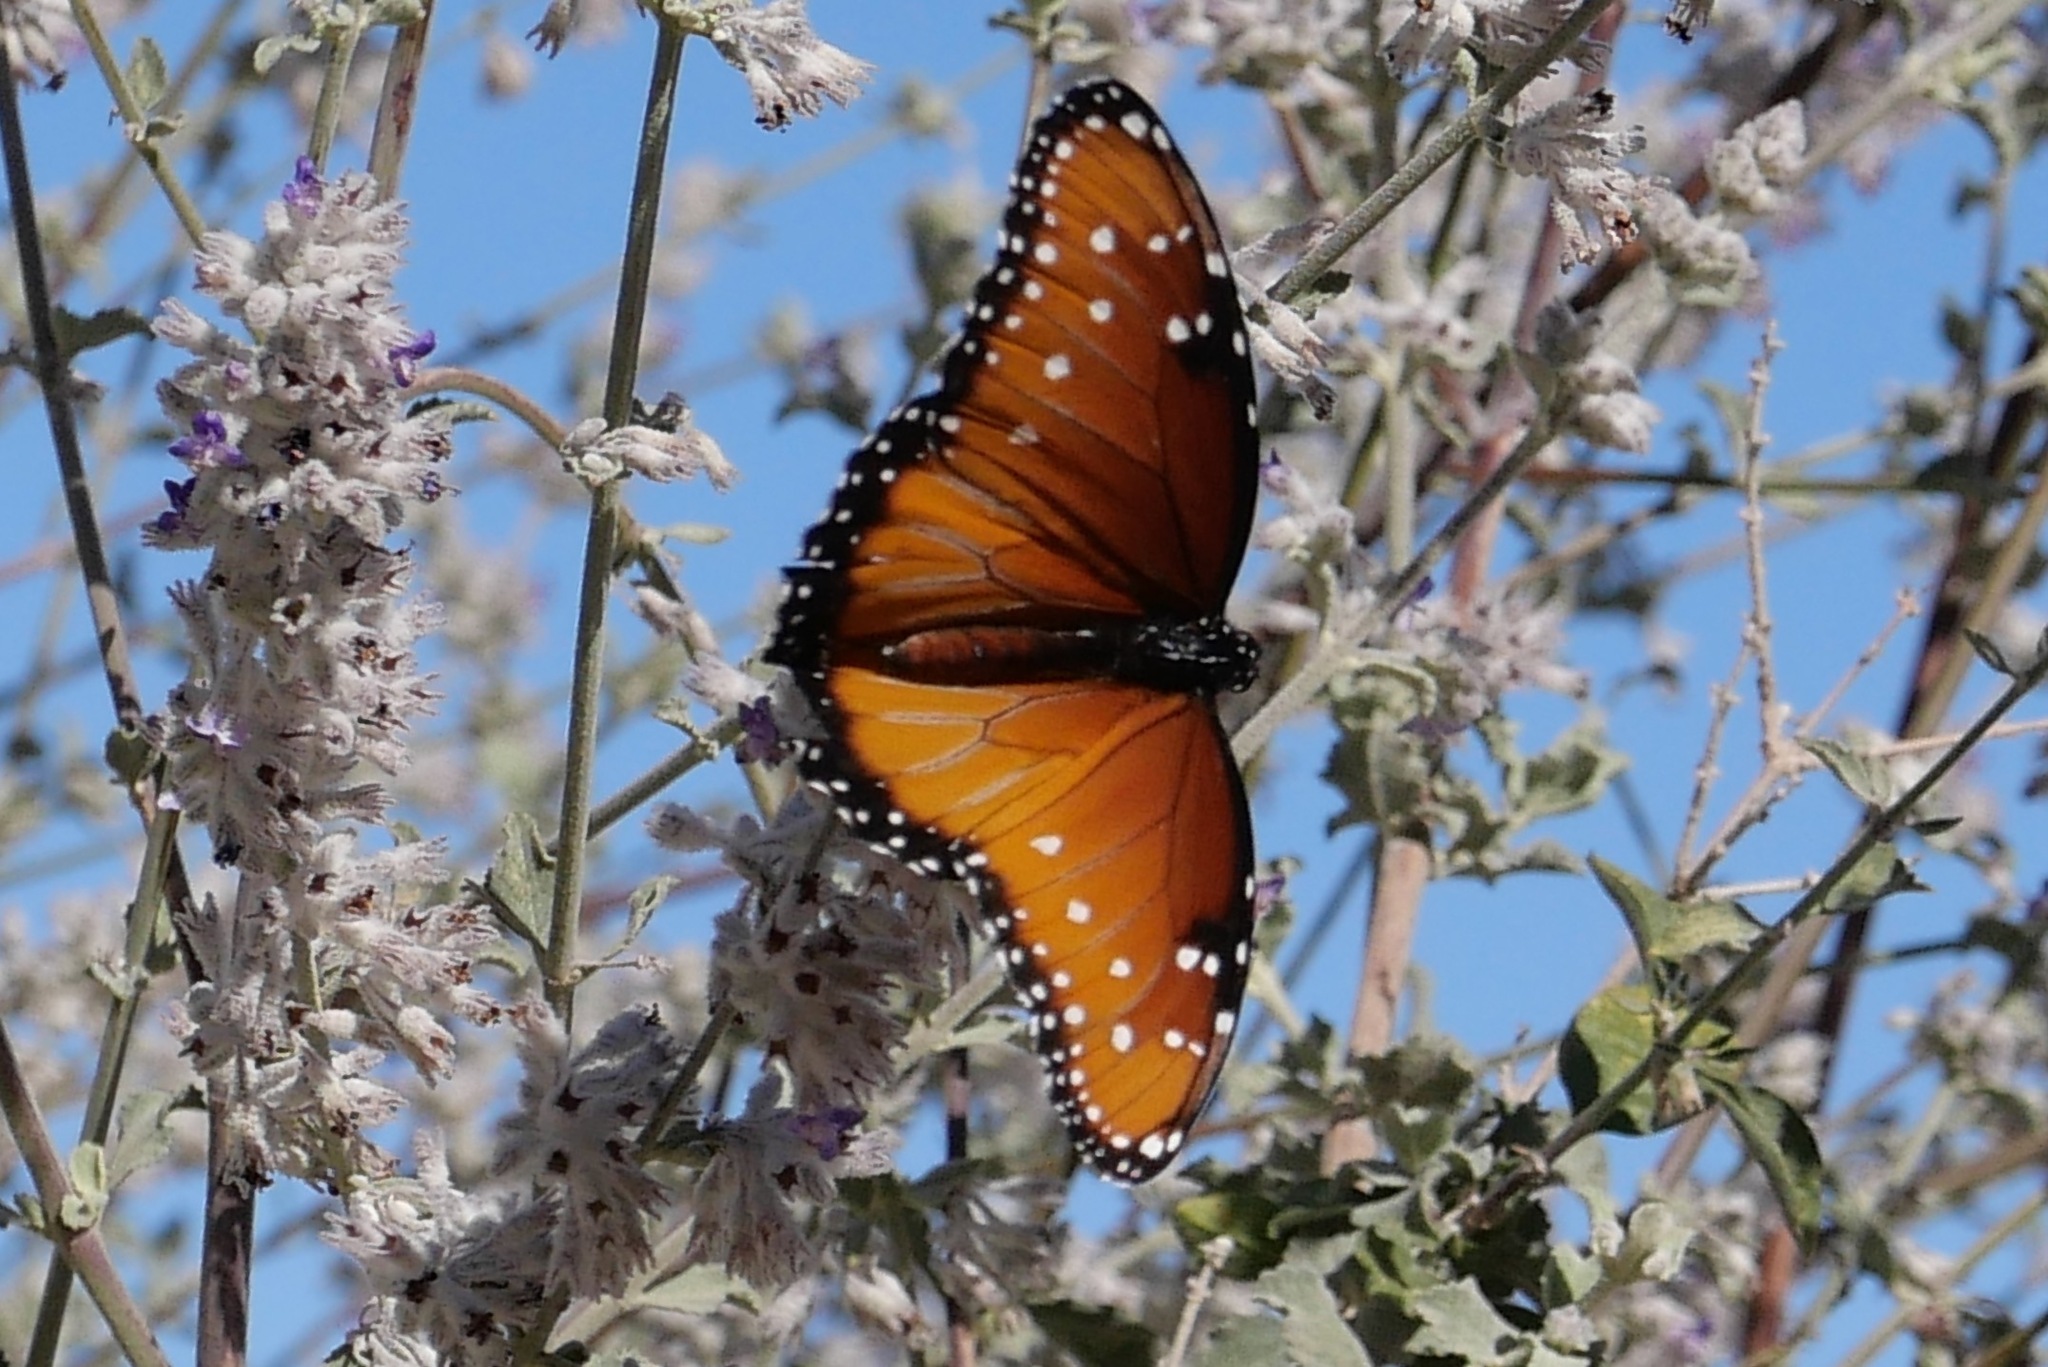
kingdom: Animalia
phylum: Arthropoda
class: Insecta
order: Lepidoptera
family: Nymphalidae
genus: Danaus
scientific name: Danaus gilippus
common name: Queen
